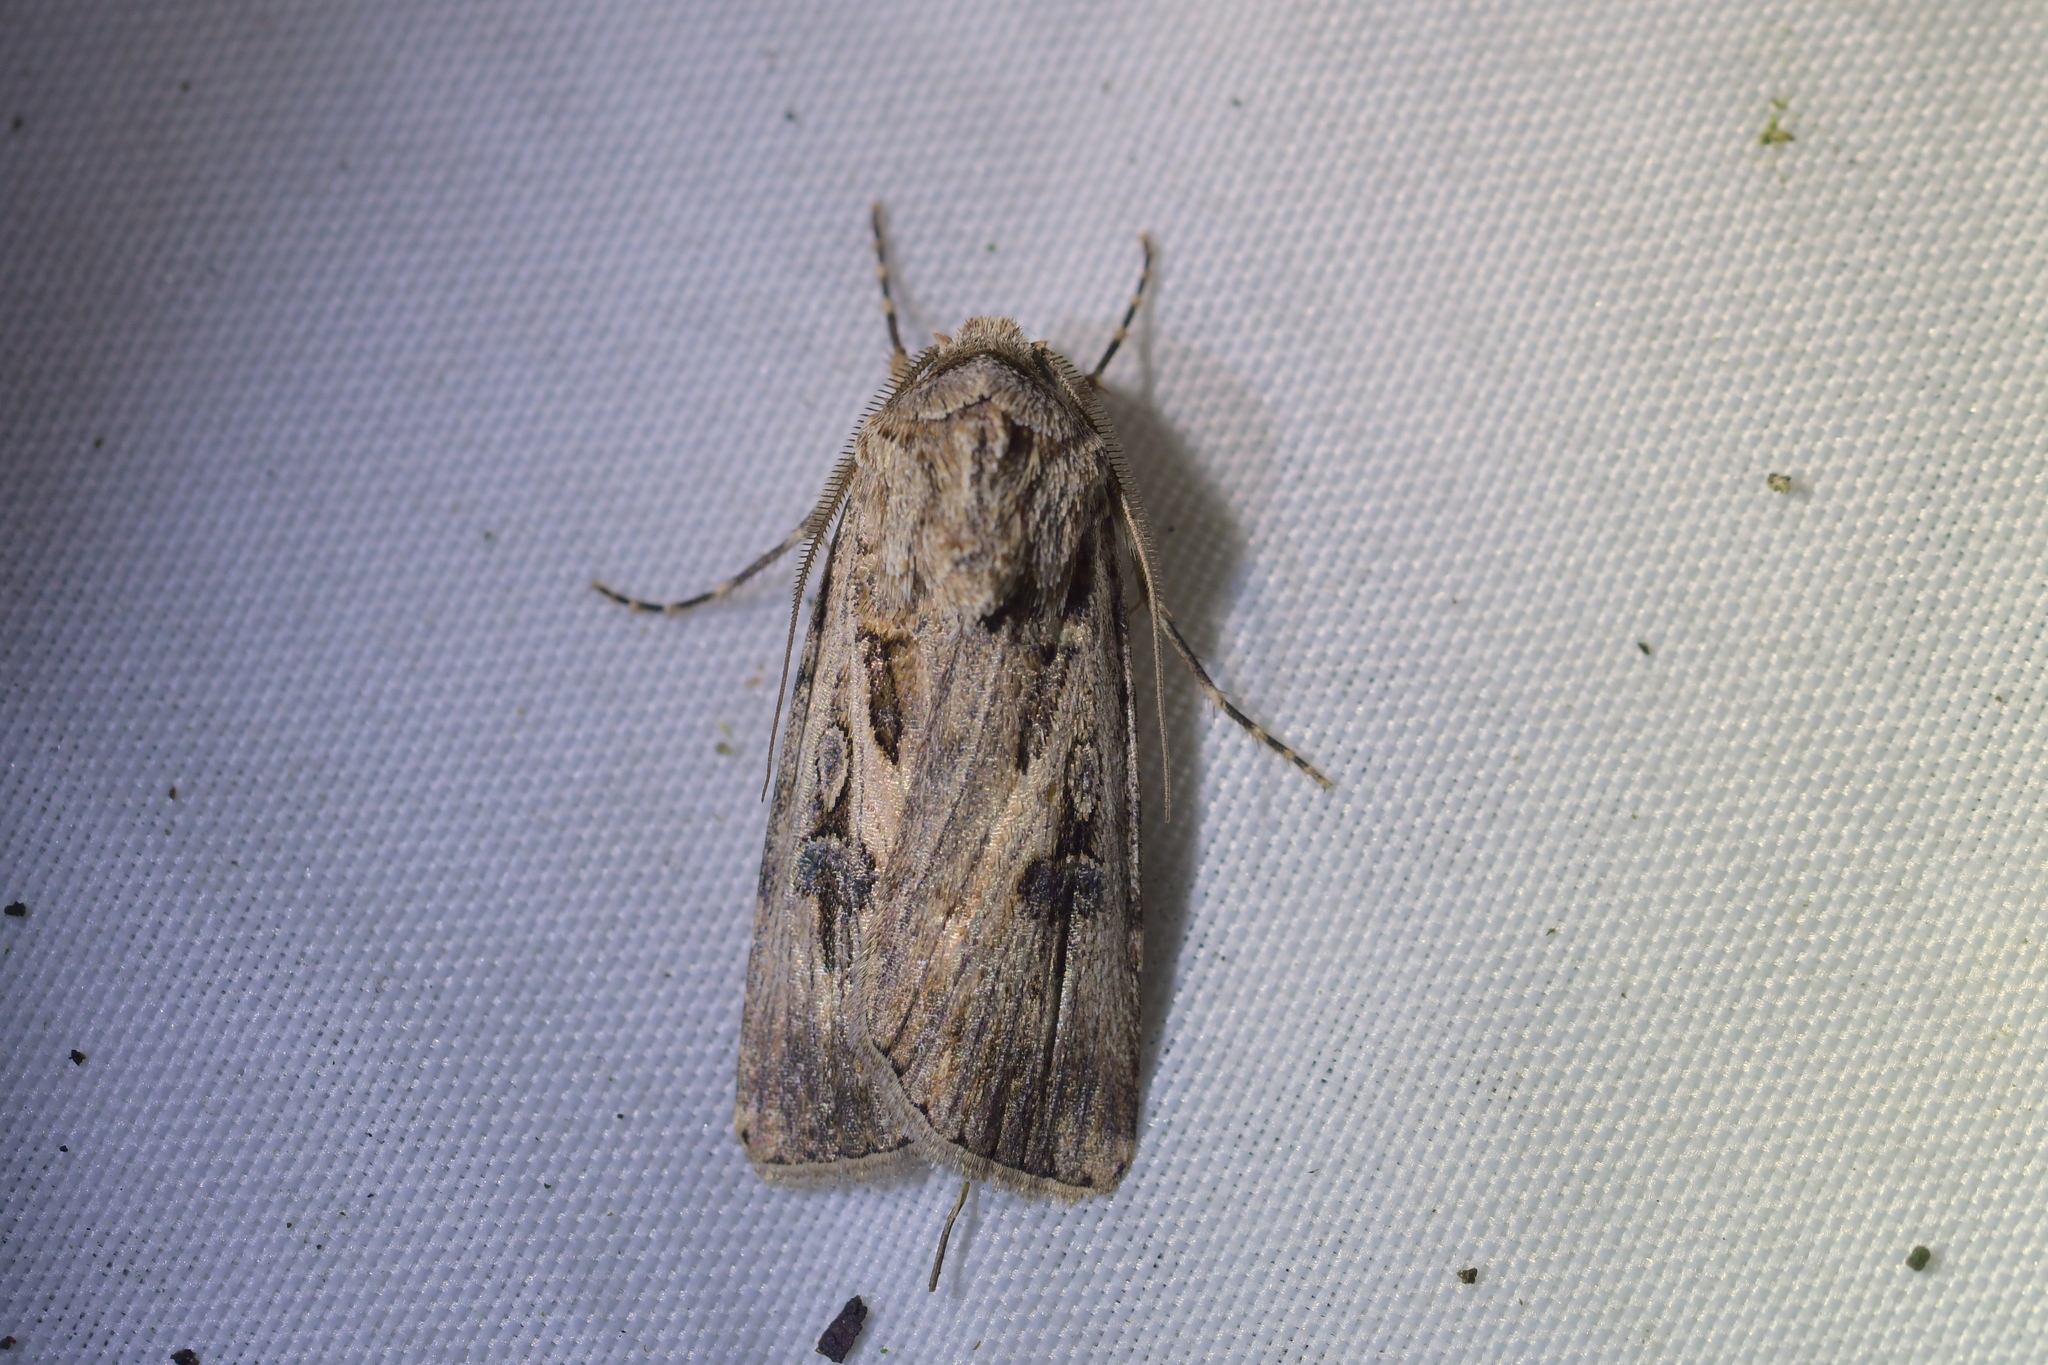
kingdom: Animalia
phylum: Arthropoda
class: Insecta
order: Lepidoptera
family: Noctuidae
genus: Agrotis
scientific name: Agrotis munda
